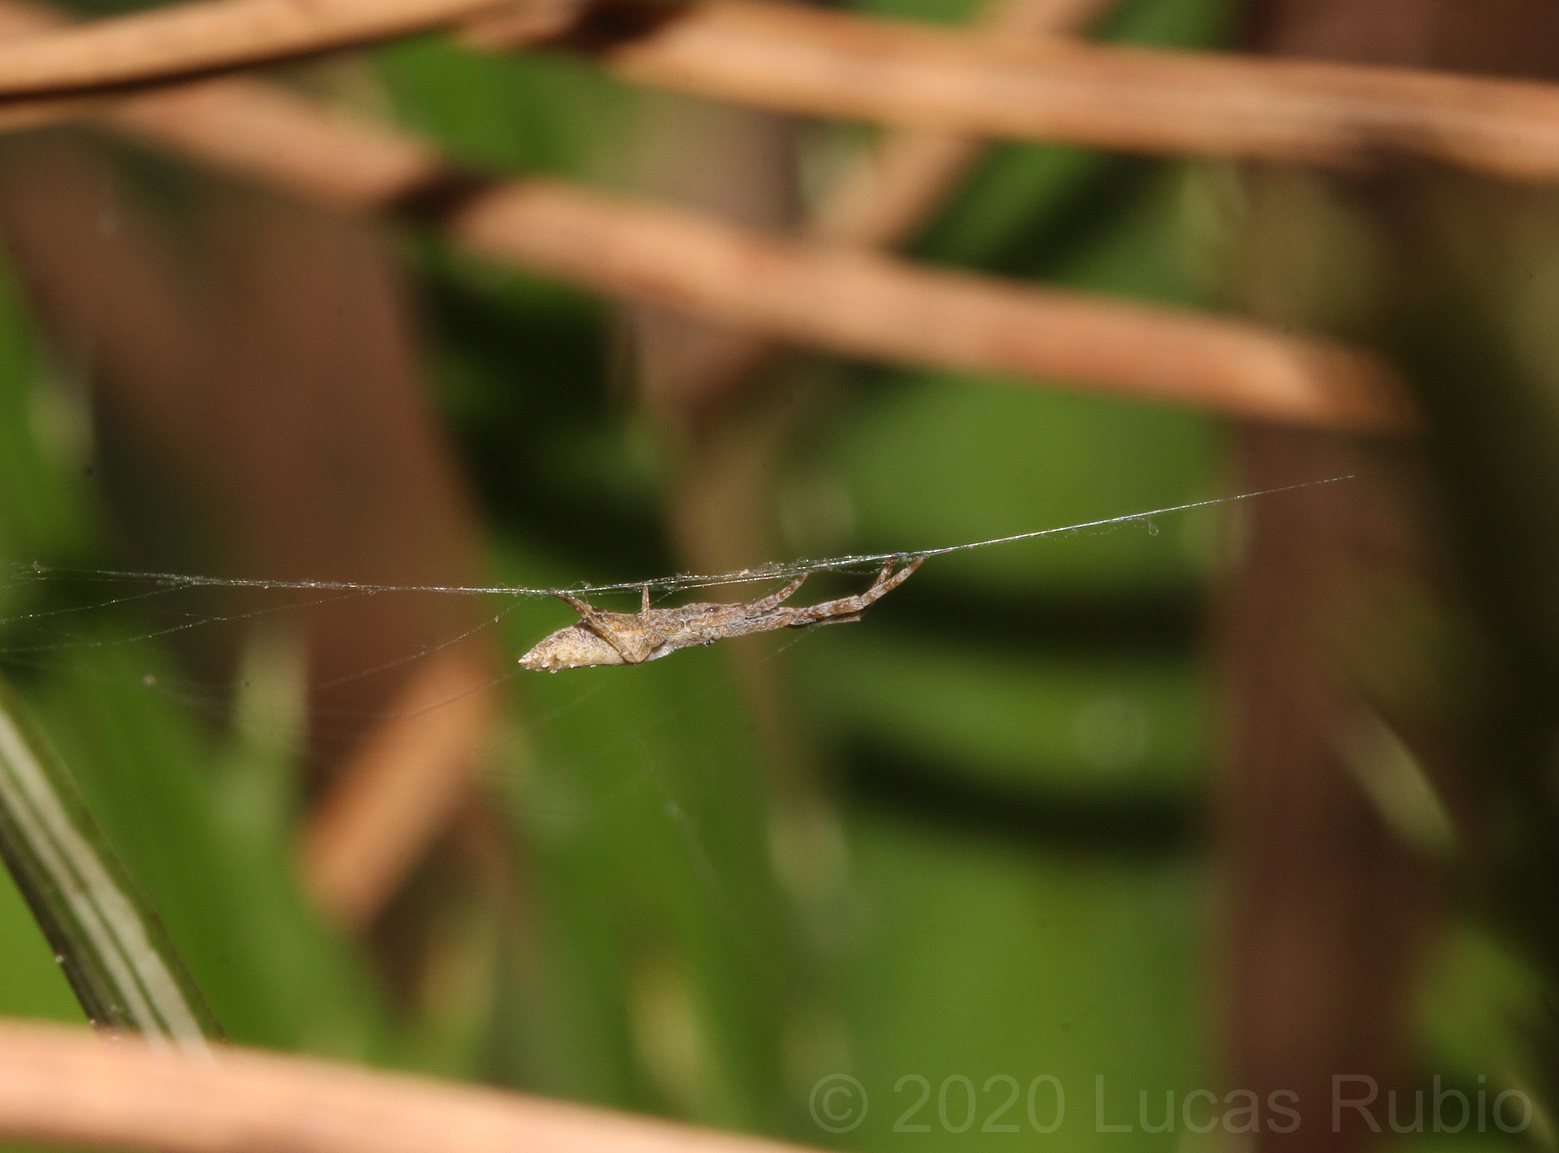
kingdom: Animalia
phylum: Arthropoda
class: Arachnida
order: Araneae
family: Uloboridae
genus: Sybota
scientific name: Sybota atlantica
